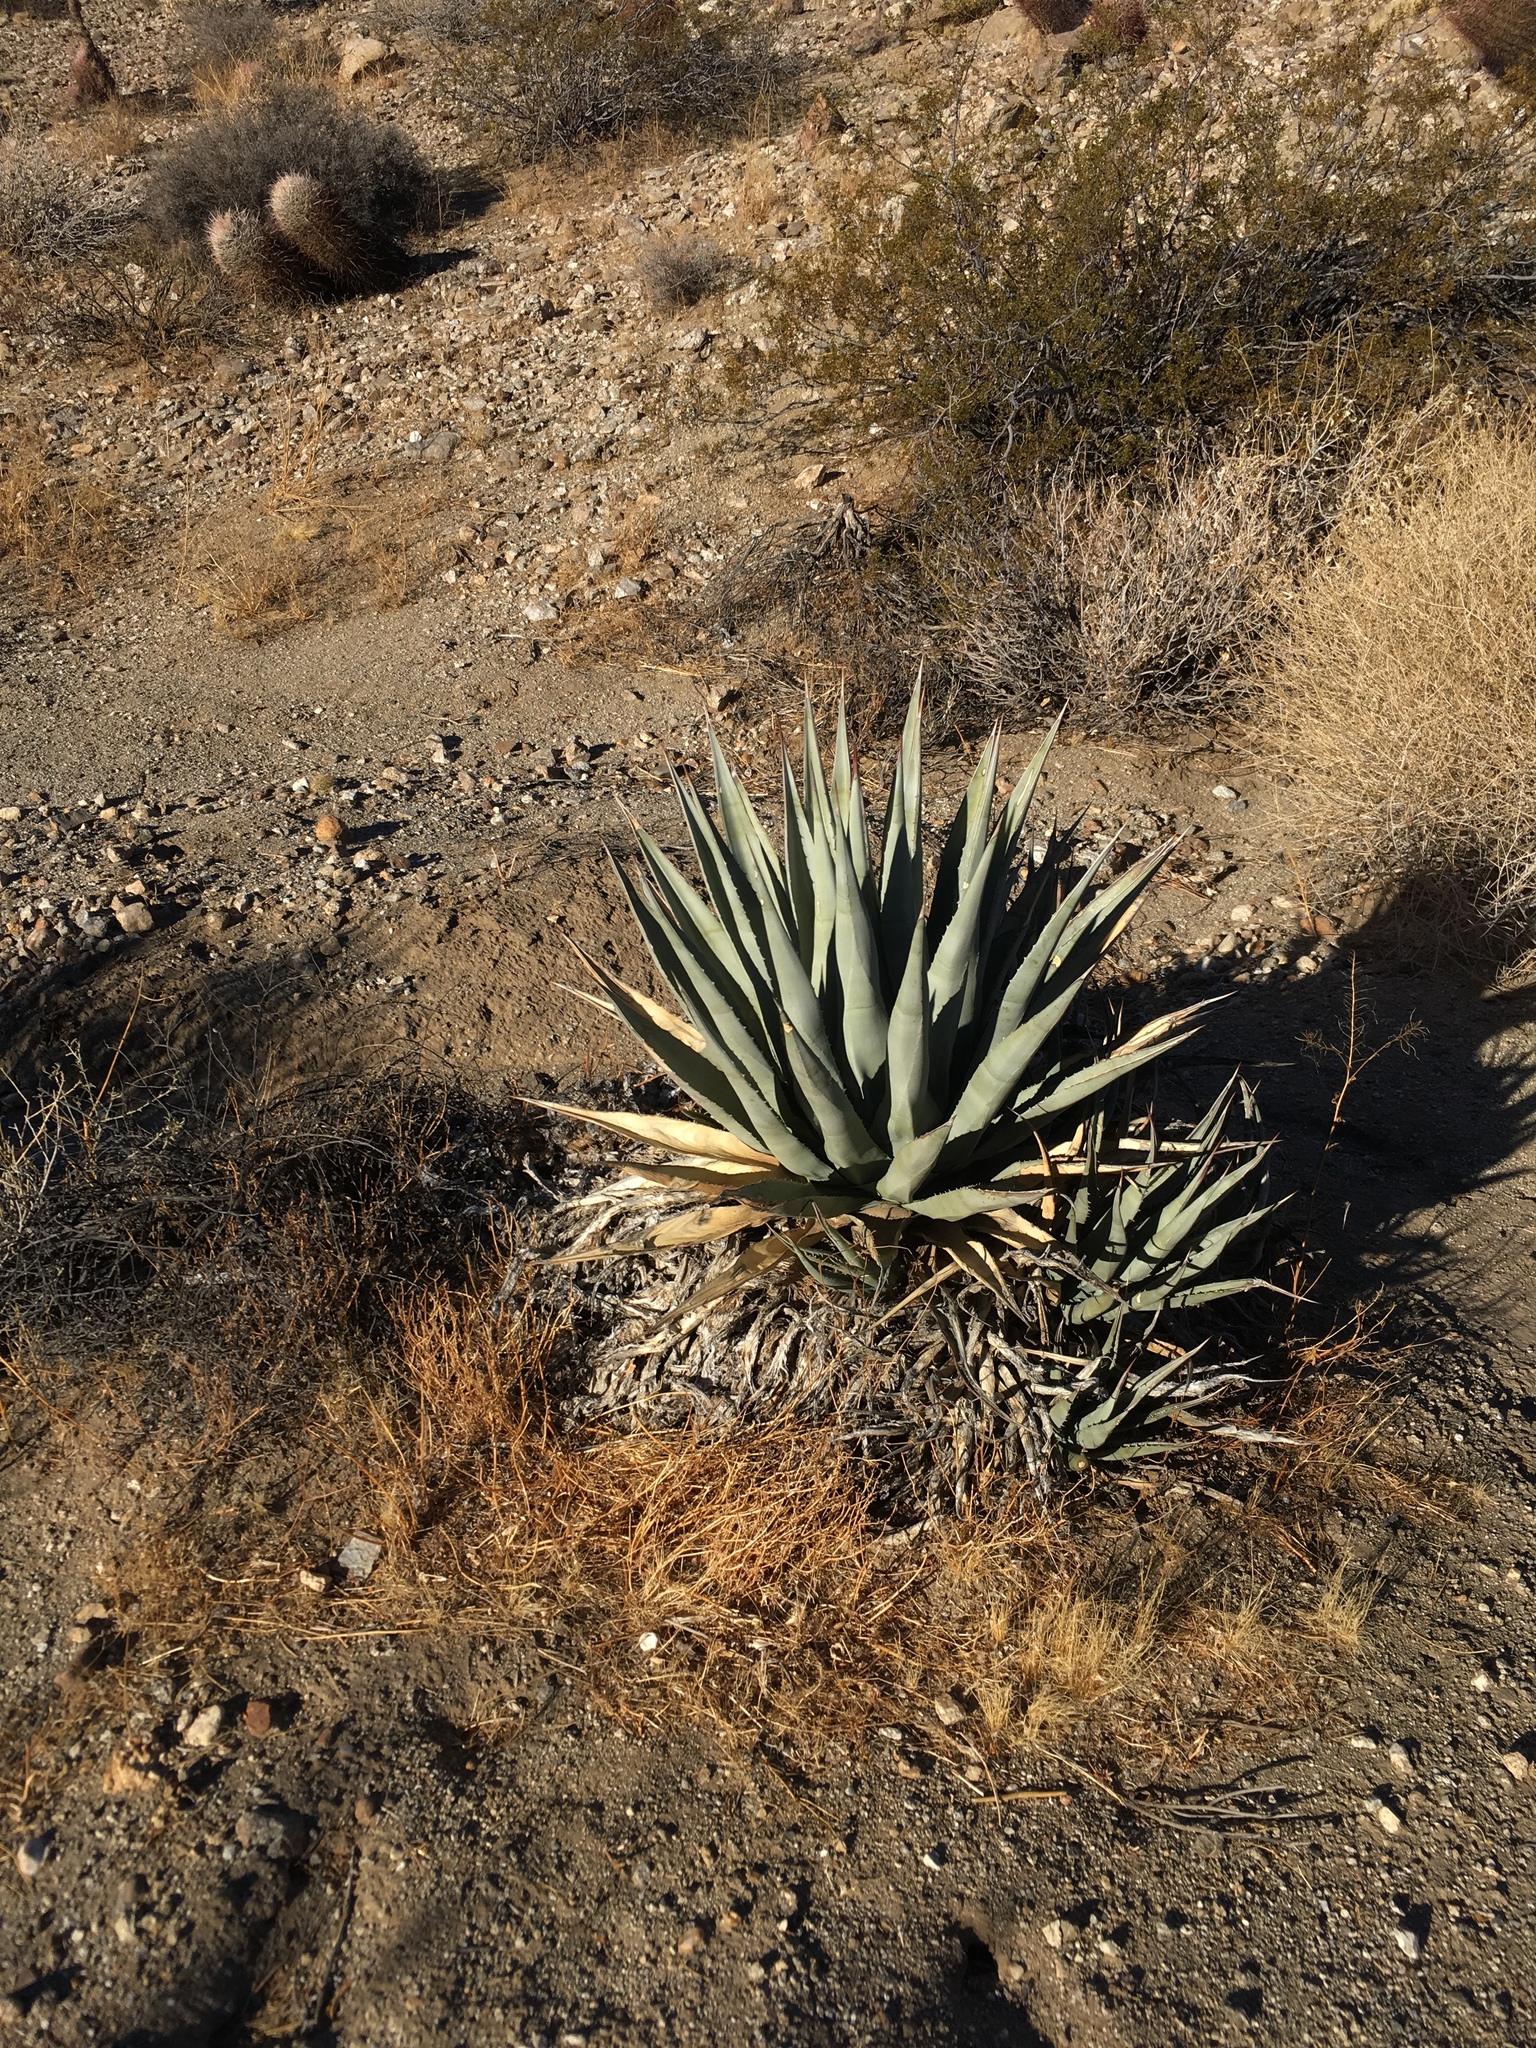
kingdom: Plantae
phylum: Tracheophyta
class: Liliopsida
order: Asparagales
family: Asparagaceae
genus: Agave
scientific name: Agave deserti
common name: Desert agave
